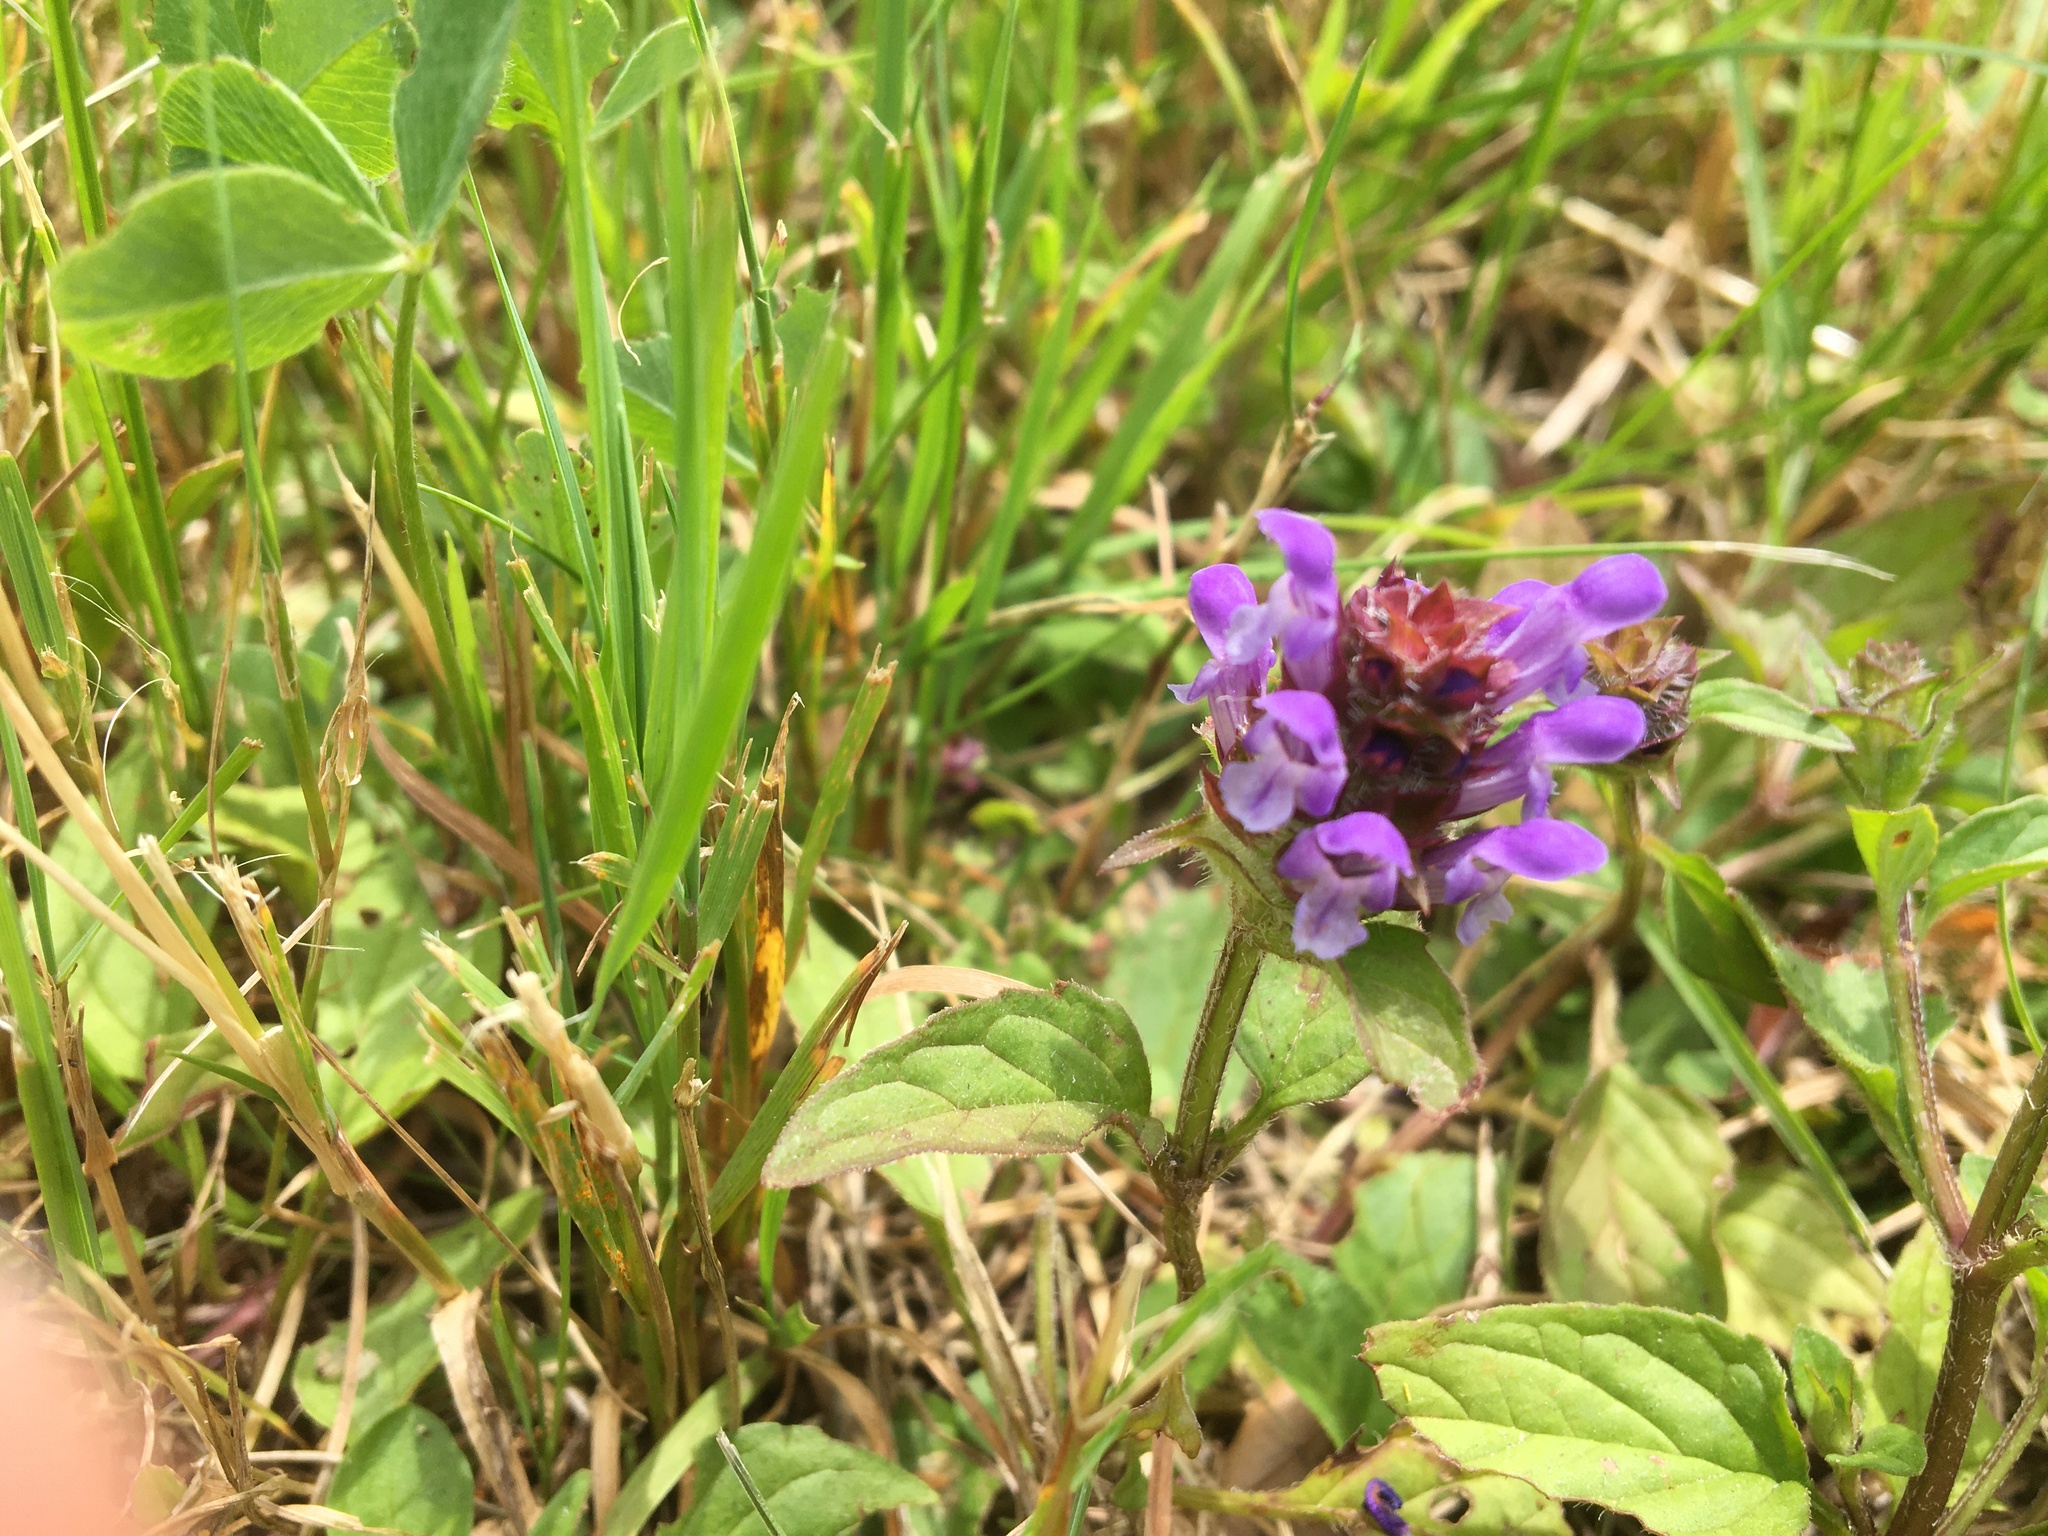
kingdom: Plantae
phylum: Tracheophyta
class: Magnoliopsida
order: Lamiales
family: Lamiaceae
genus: Prunella
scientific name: Prunella vulgaris
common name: Heal-all
